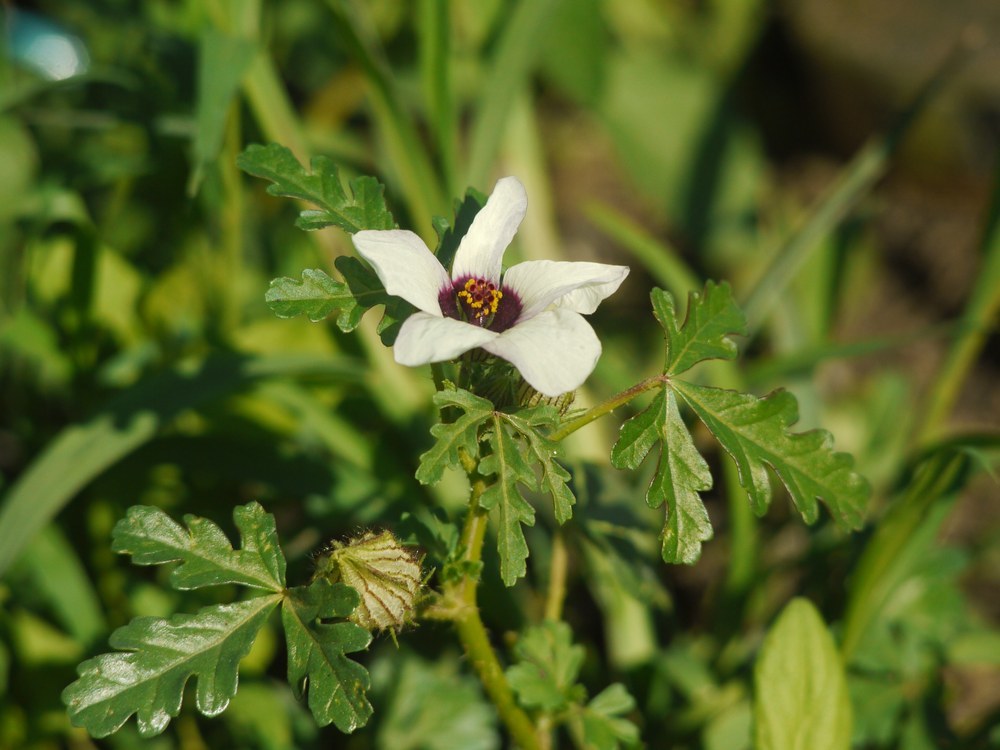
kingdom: Plantae
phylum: Tracheophyta
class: Magnoliopsida
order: Malvales
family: Malvaceae
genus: Hibiscus
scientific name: Hibiscus trionum
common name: Bladder ketmia
